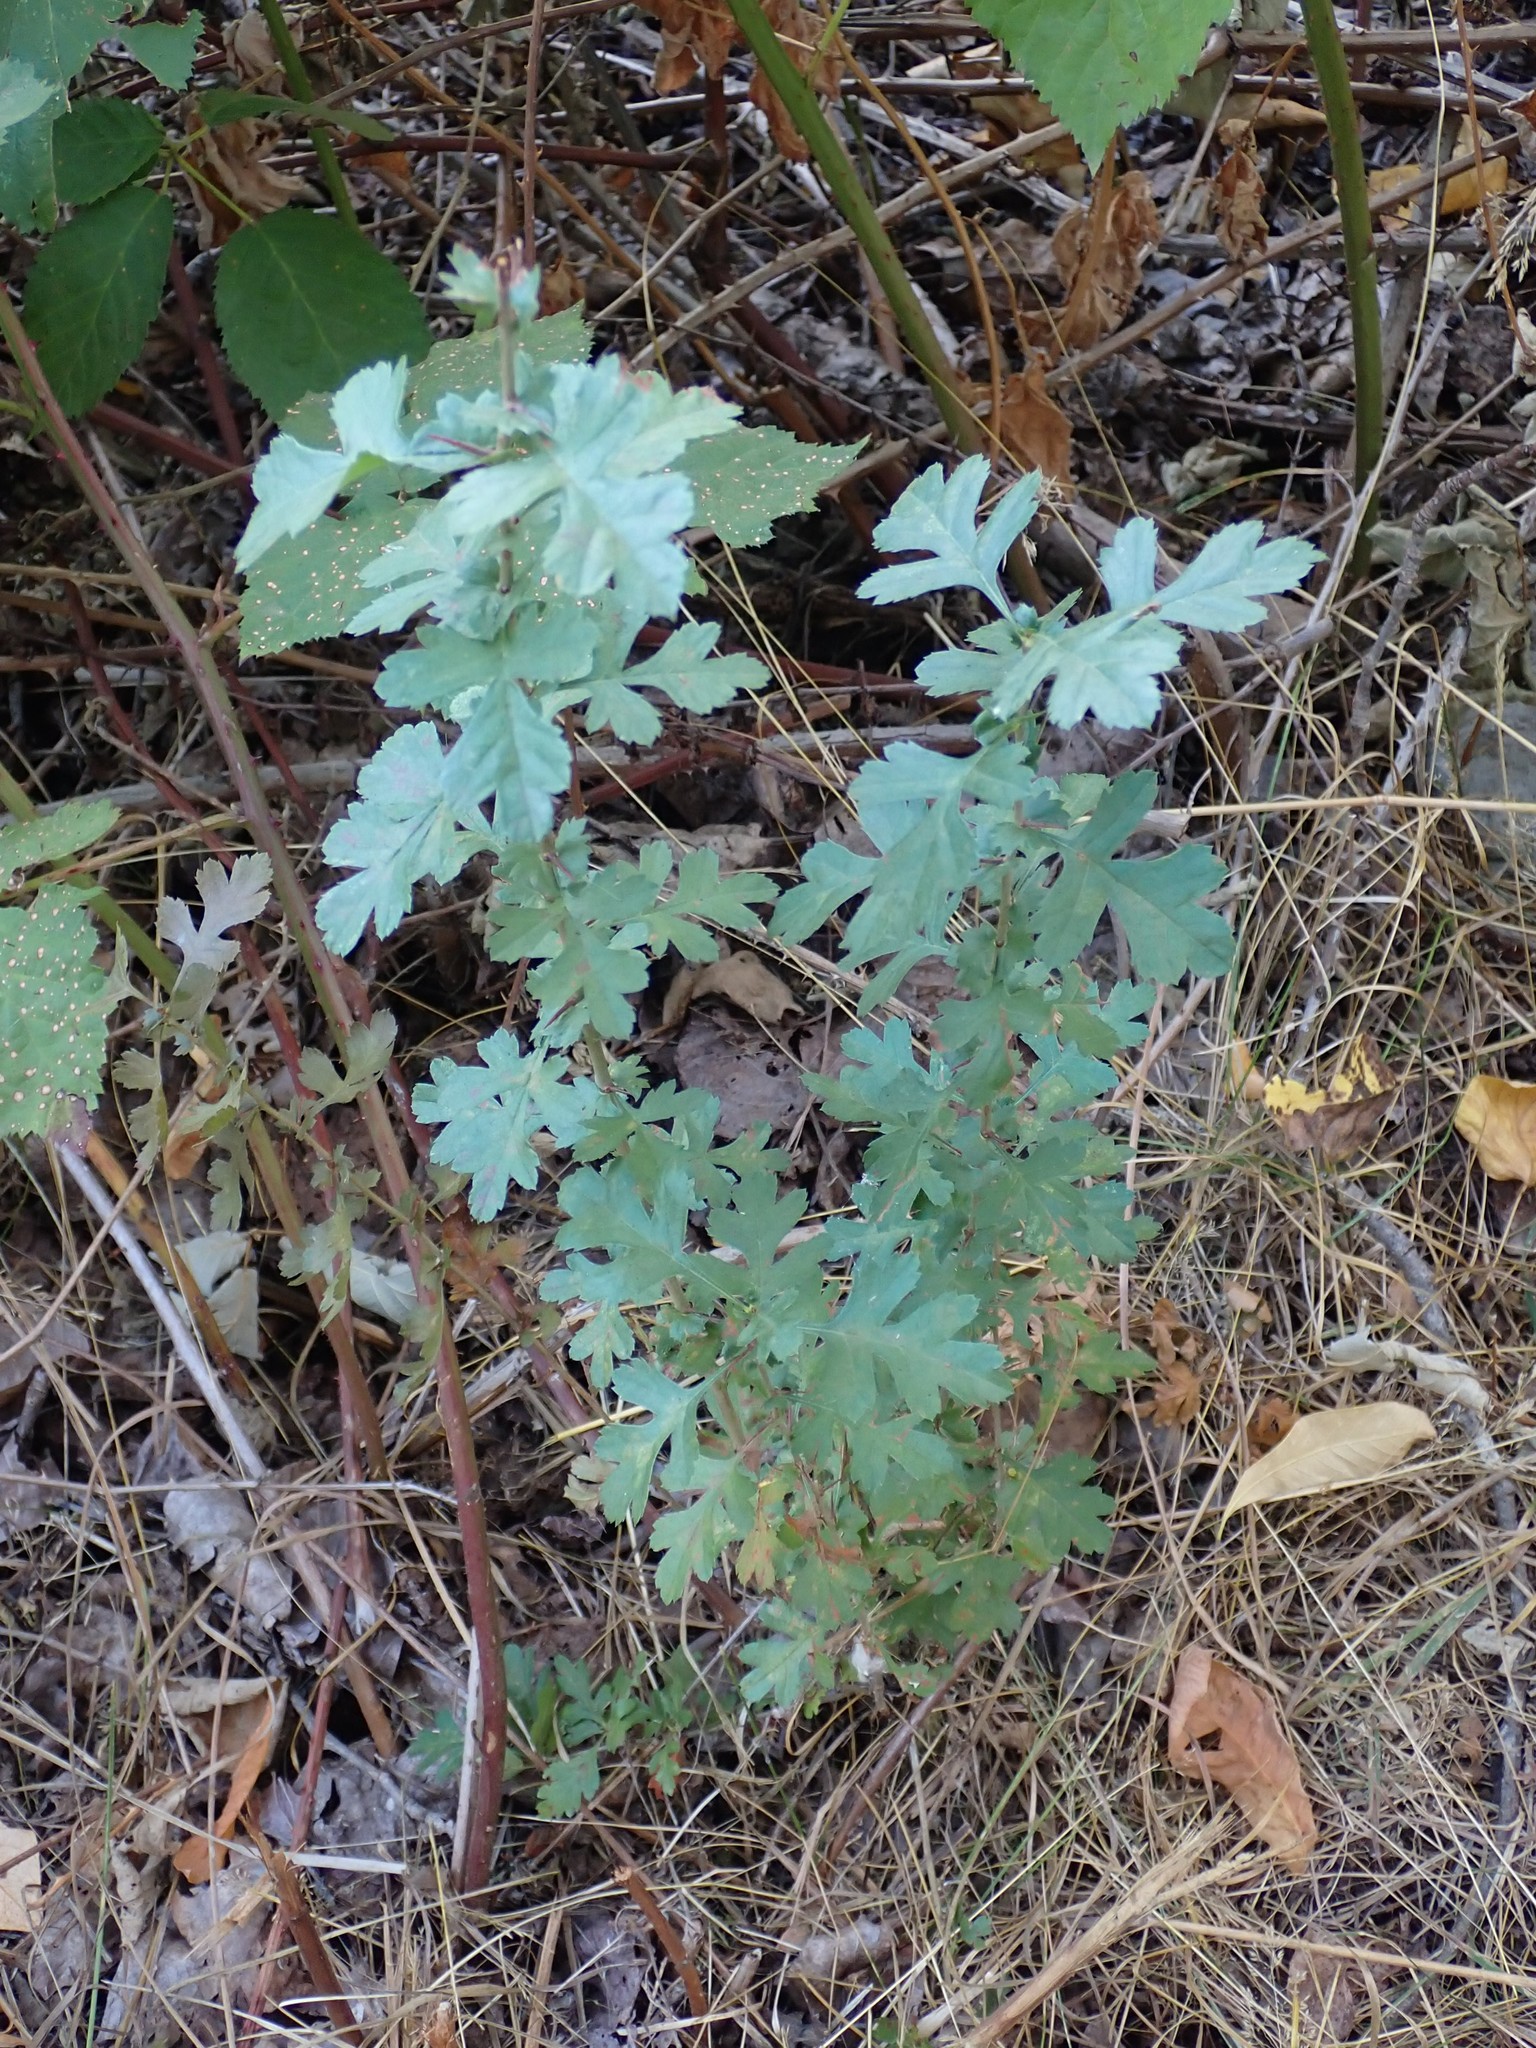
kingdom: Plantae
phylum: Tracheophyta
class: Magnoliopsida
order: Rosales
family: Rosaceae
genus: Crataegus
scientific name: Crataegus monogyna
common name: Hawthorn
